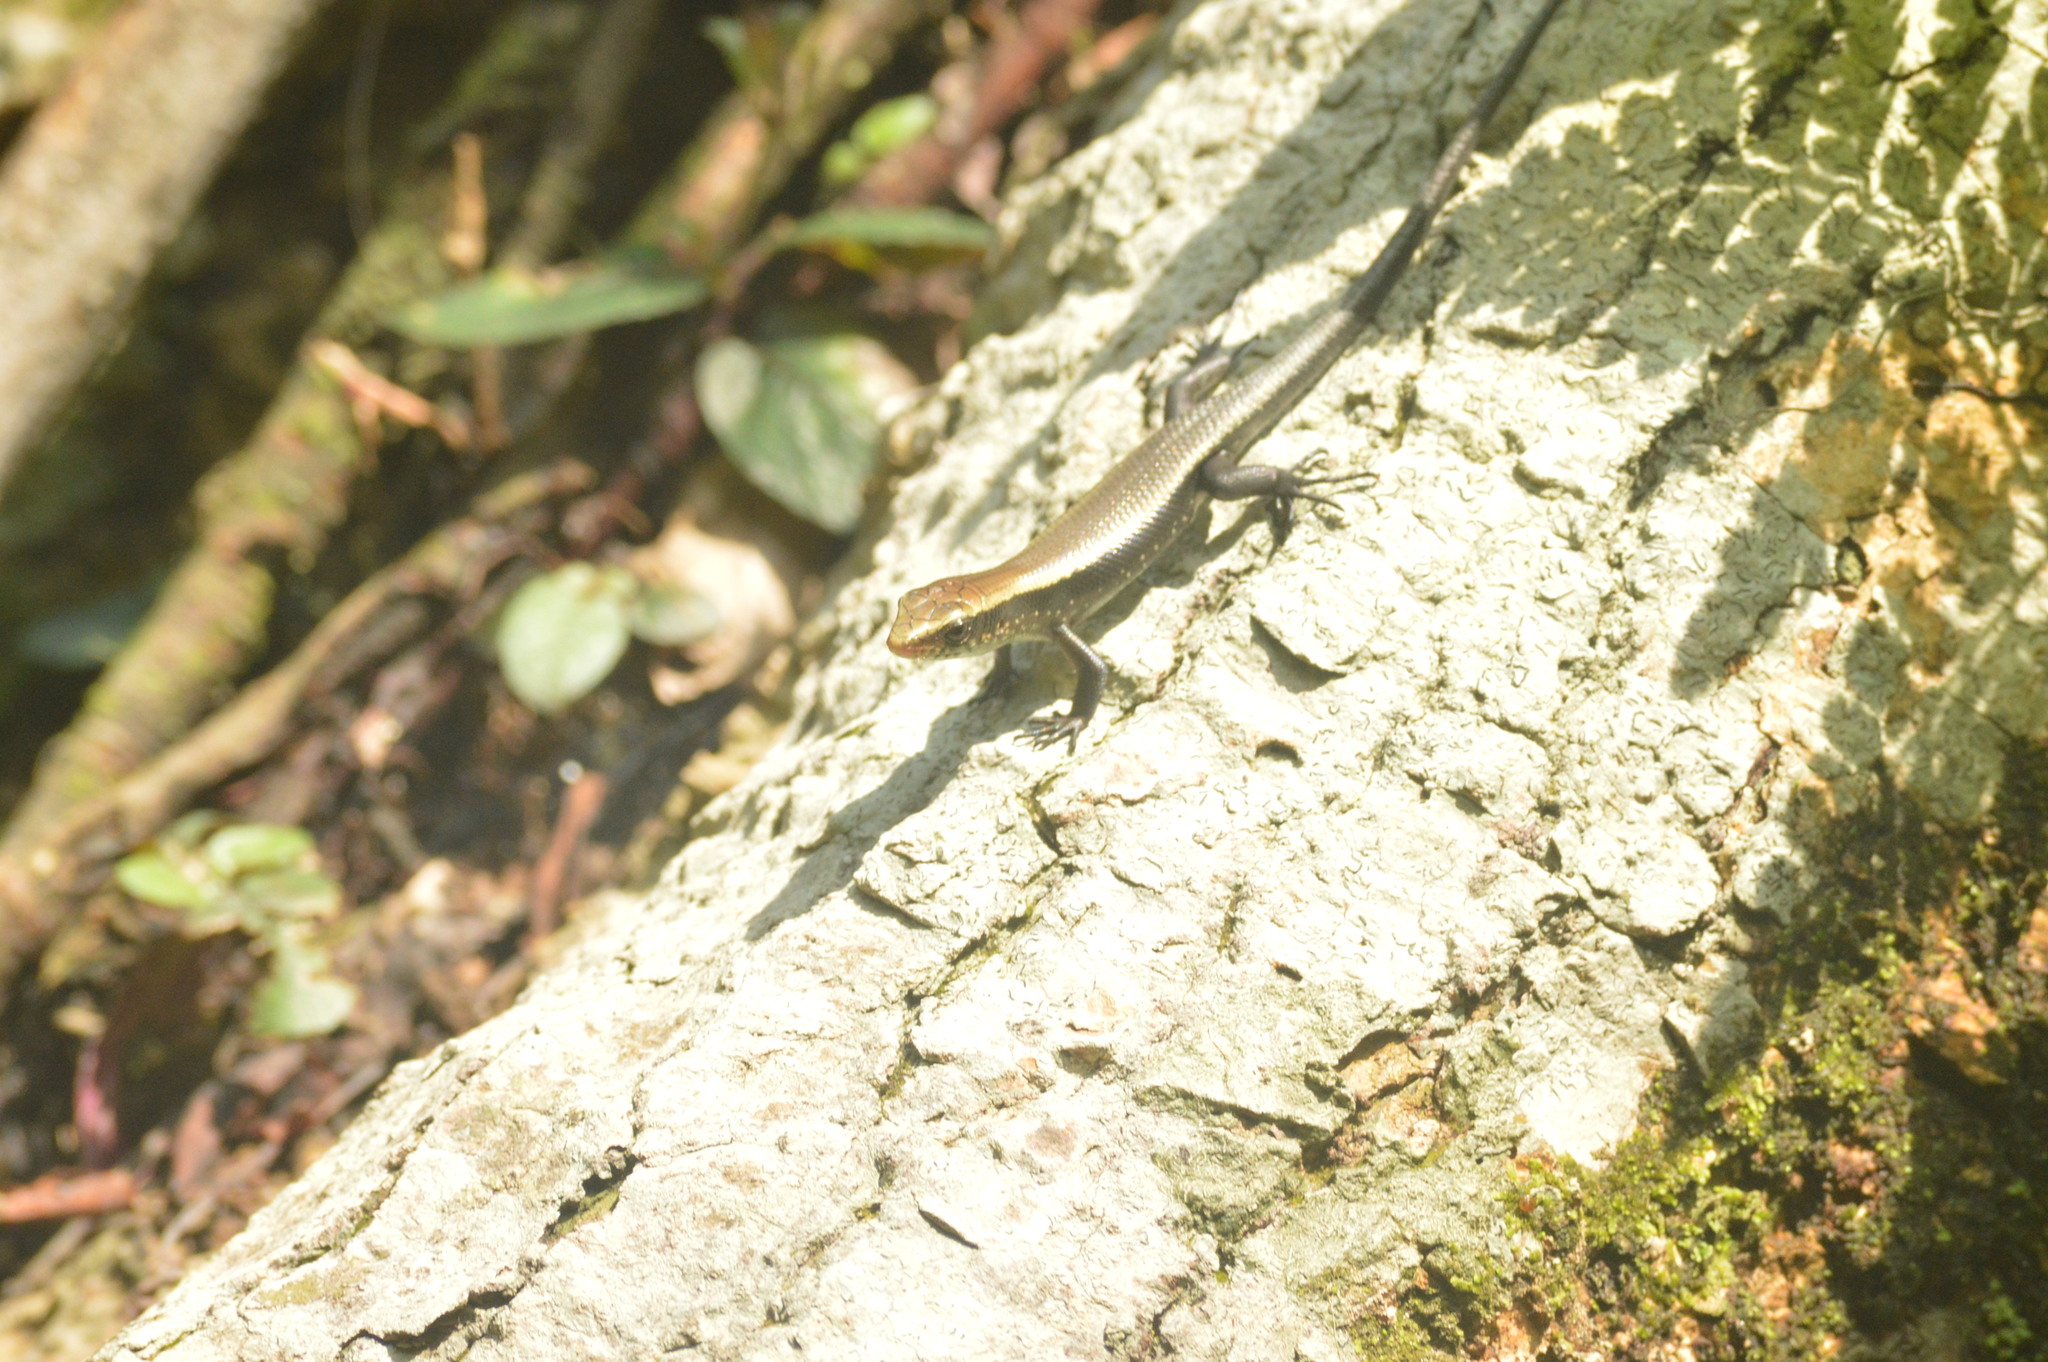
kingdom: Animalia
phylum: Chordata
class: Squamata
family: Scincidae
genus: Eutropis
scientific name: Eutropis multifasciata
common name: Common mabuya
